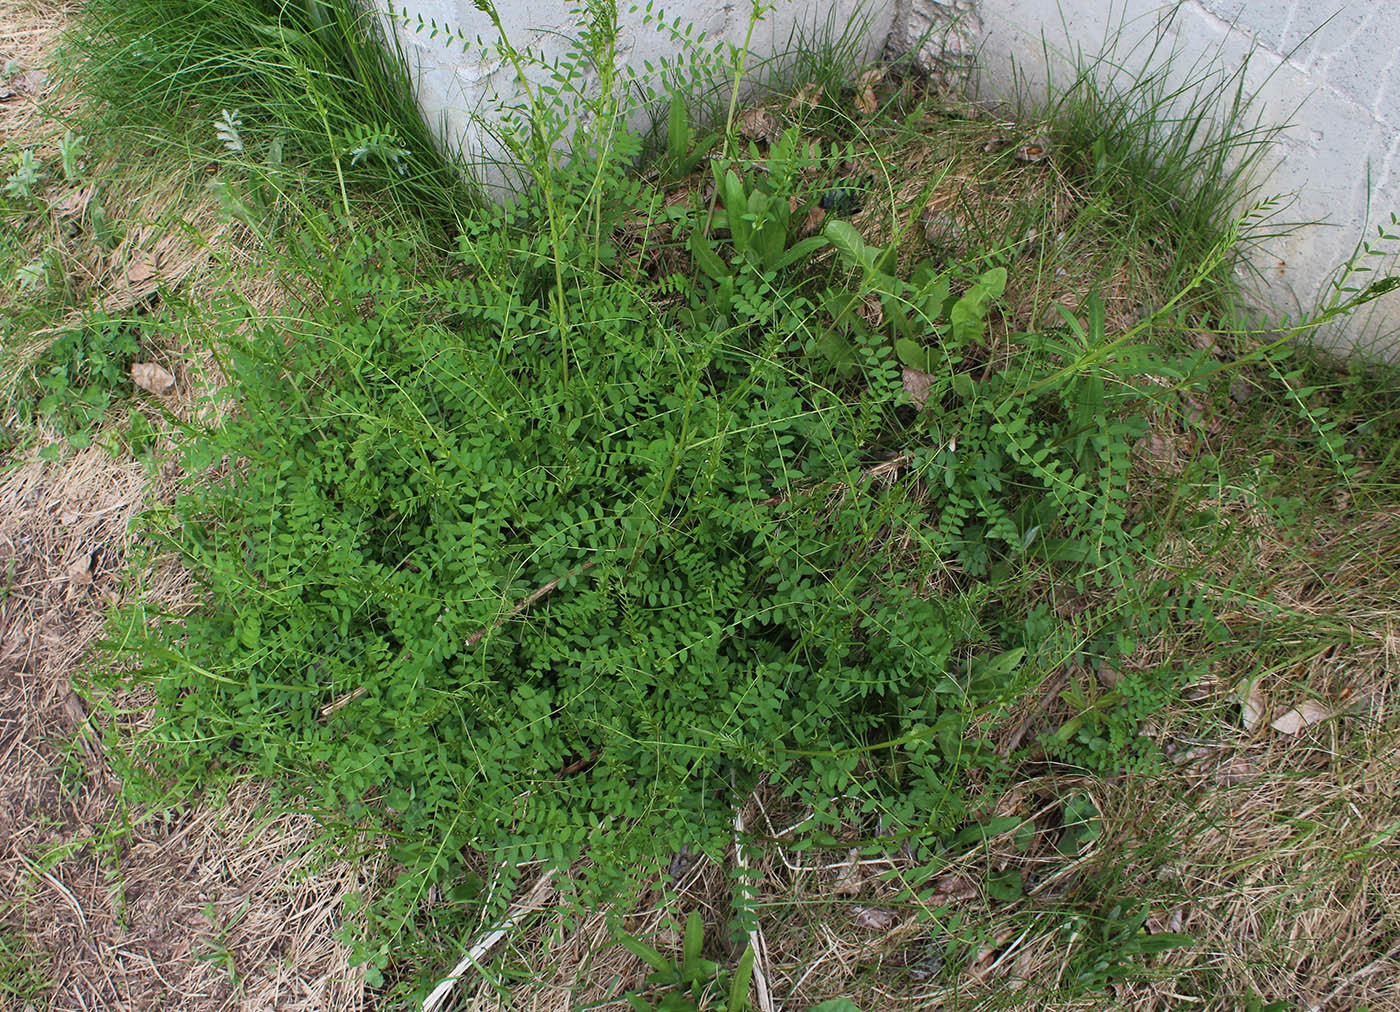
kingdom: Plantae
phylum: Tracheophyta
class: Magnoliopsida
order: Fabales
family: Fabaceae
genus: Vicia
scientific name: Vicia sylvatica
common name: Wood vetch
